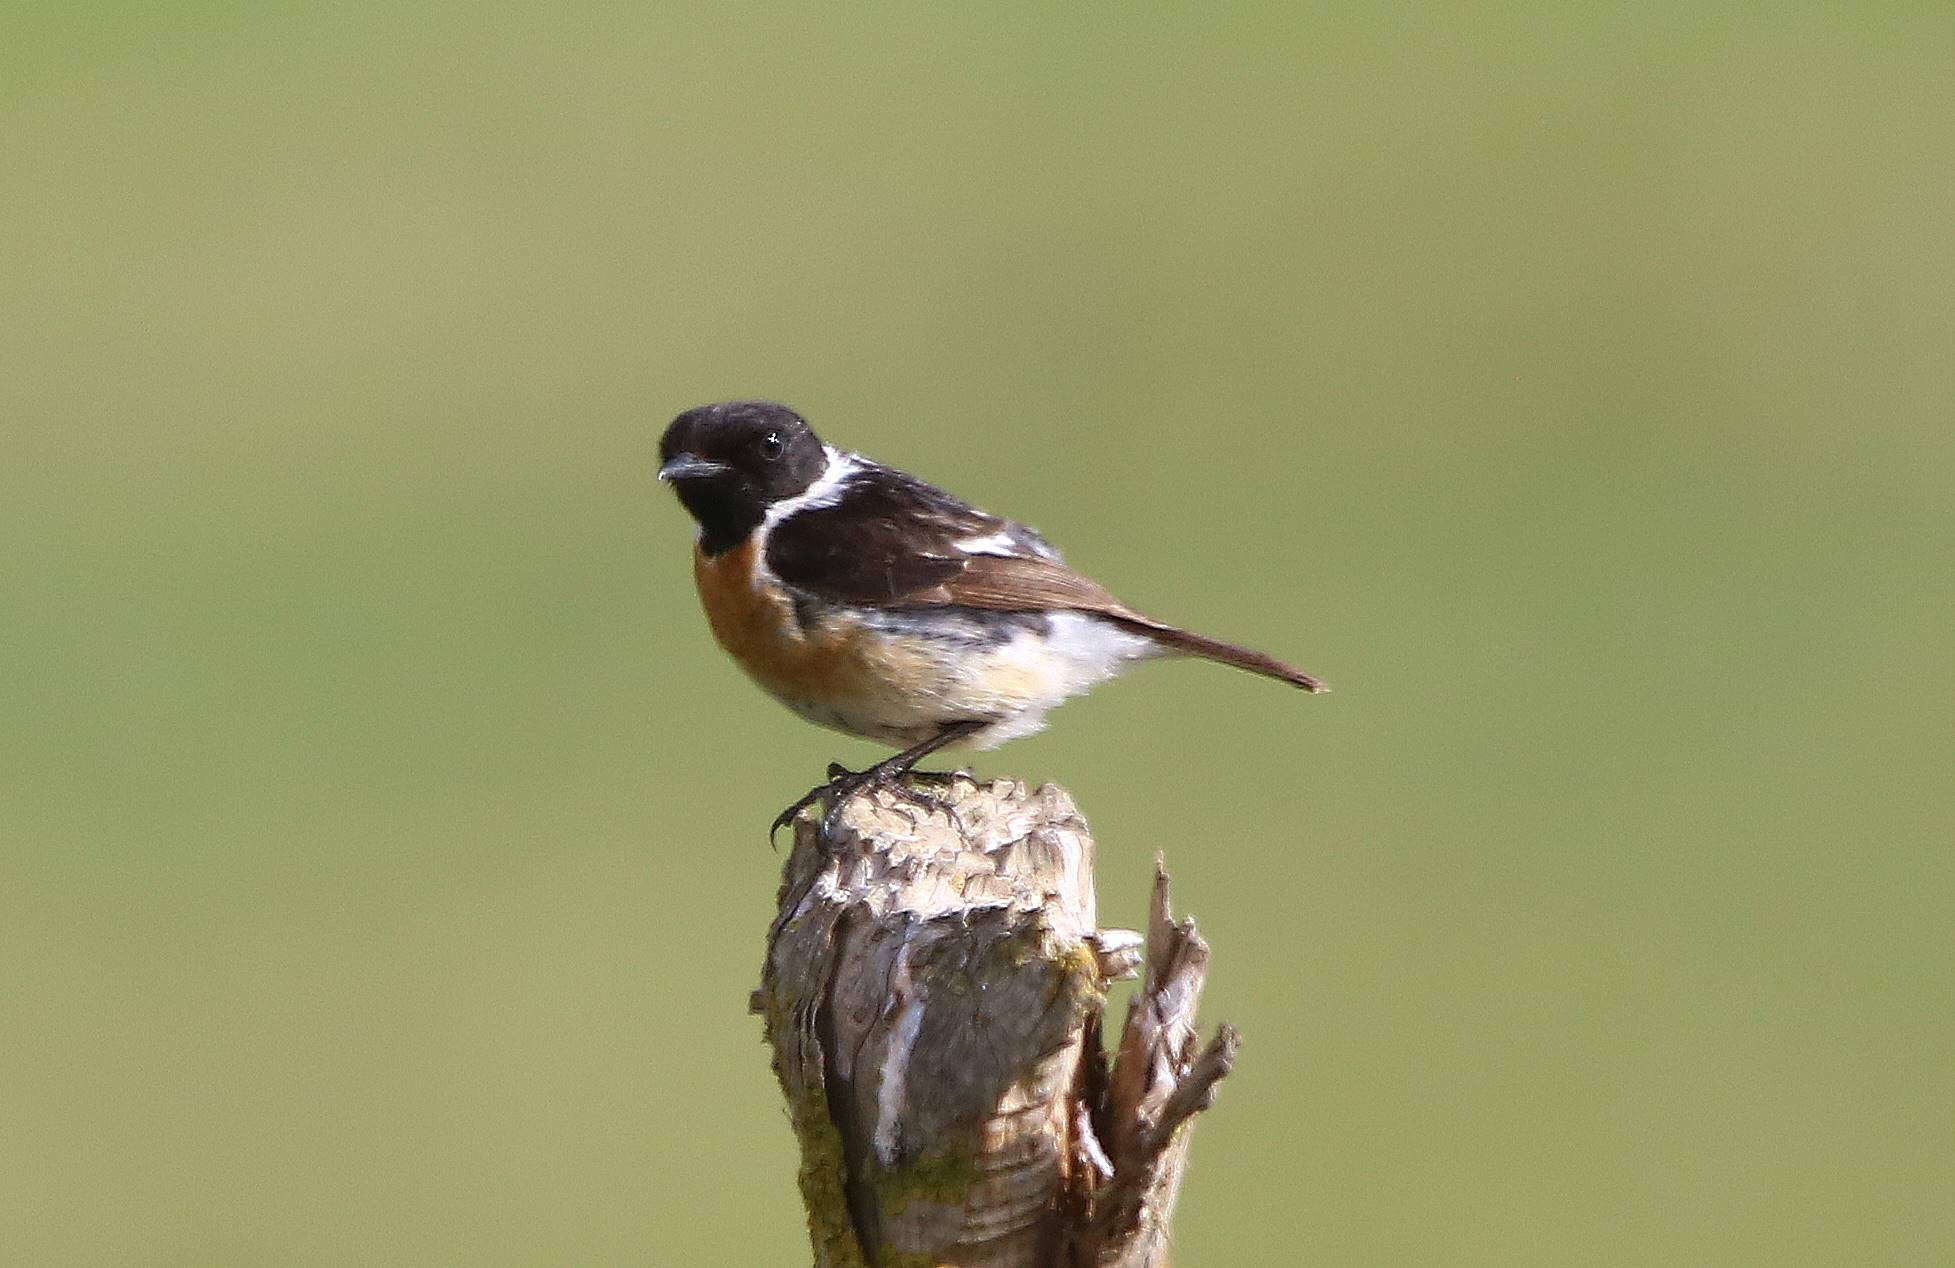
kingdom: Animalia
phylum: Chordata
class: Aves
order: Passeriformes
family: Muscicapidae
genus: Saxicola
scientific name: Saxicola rubicola
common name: European stonechat
